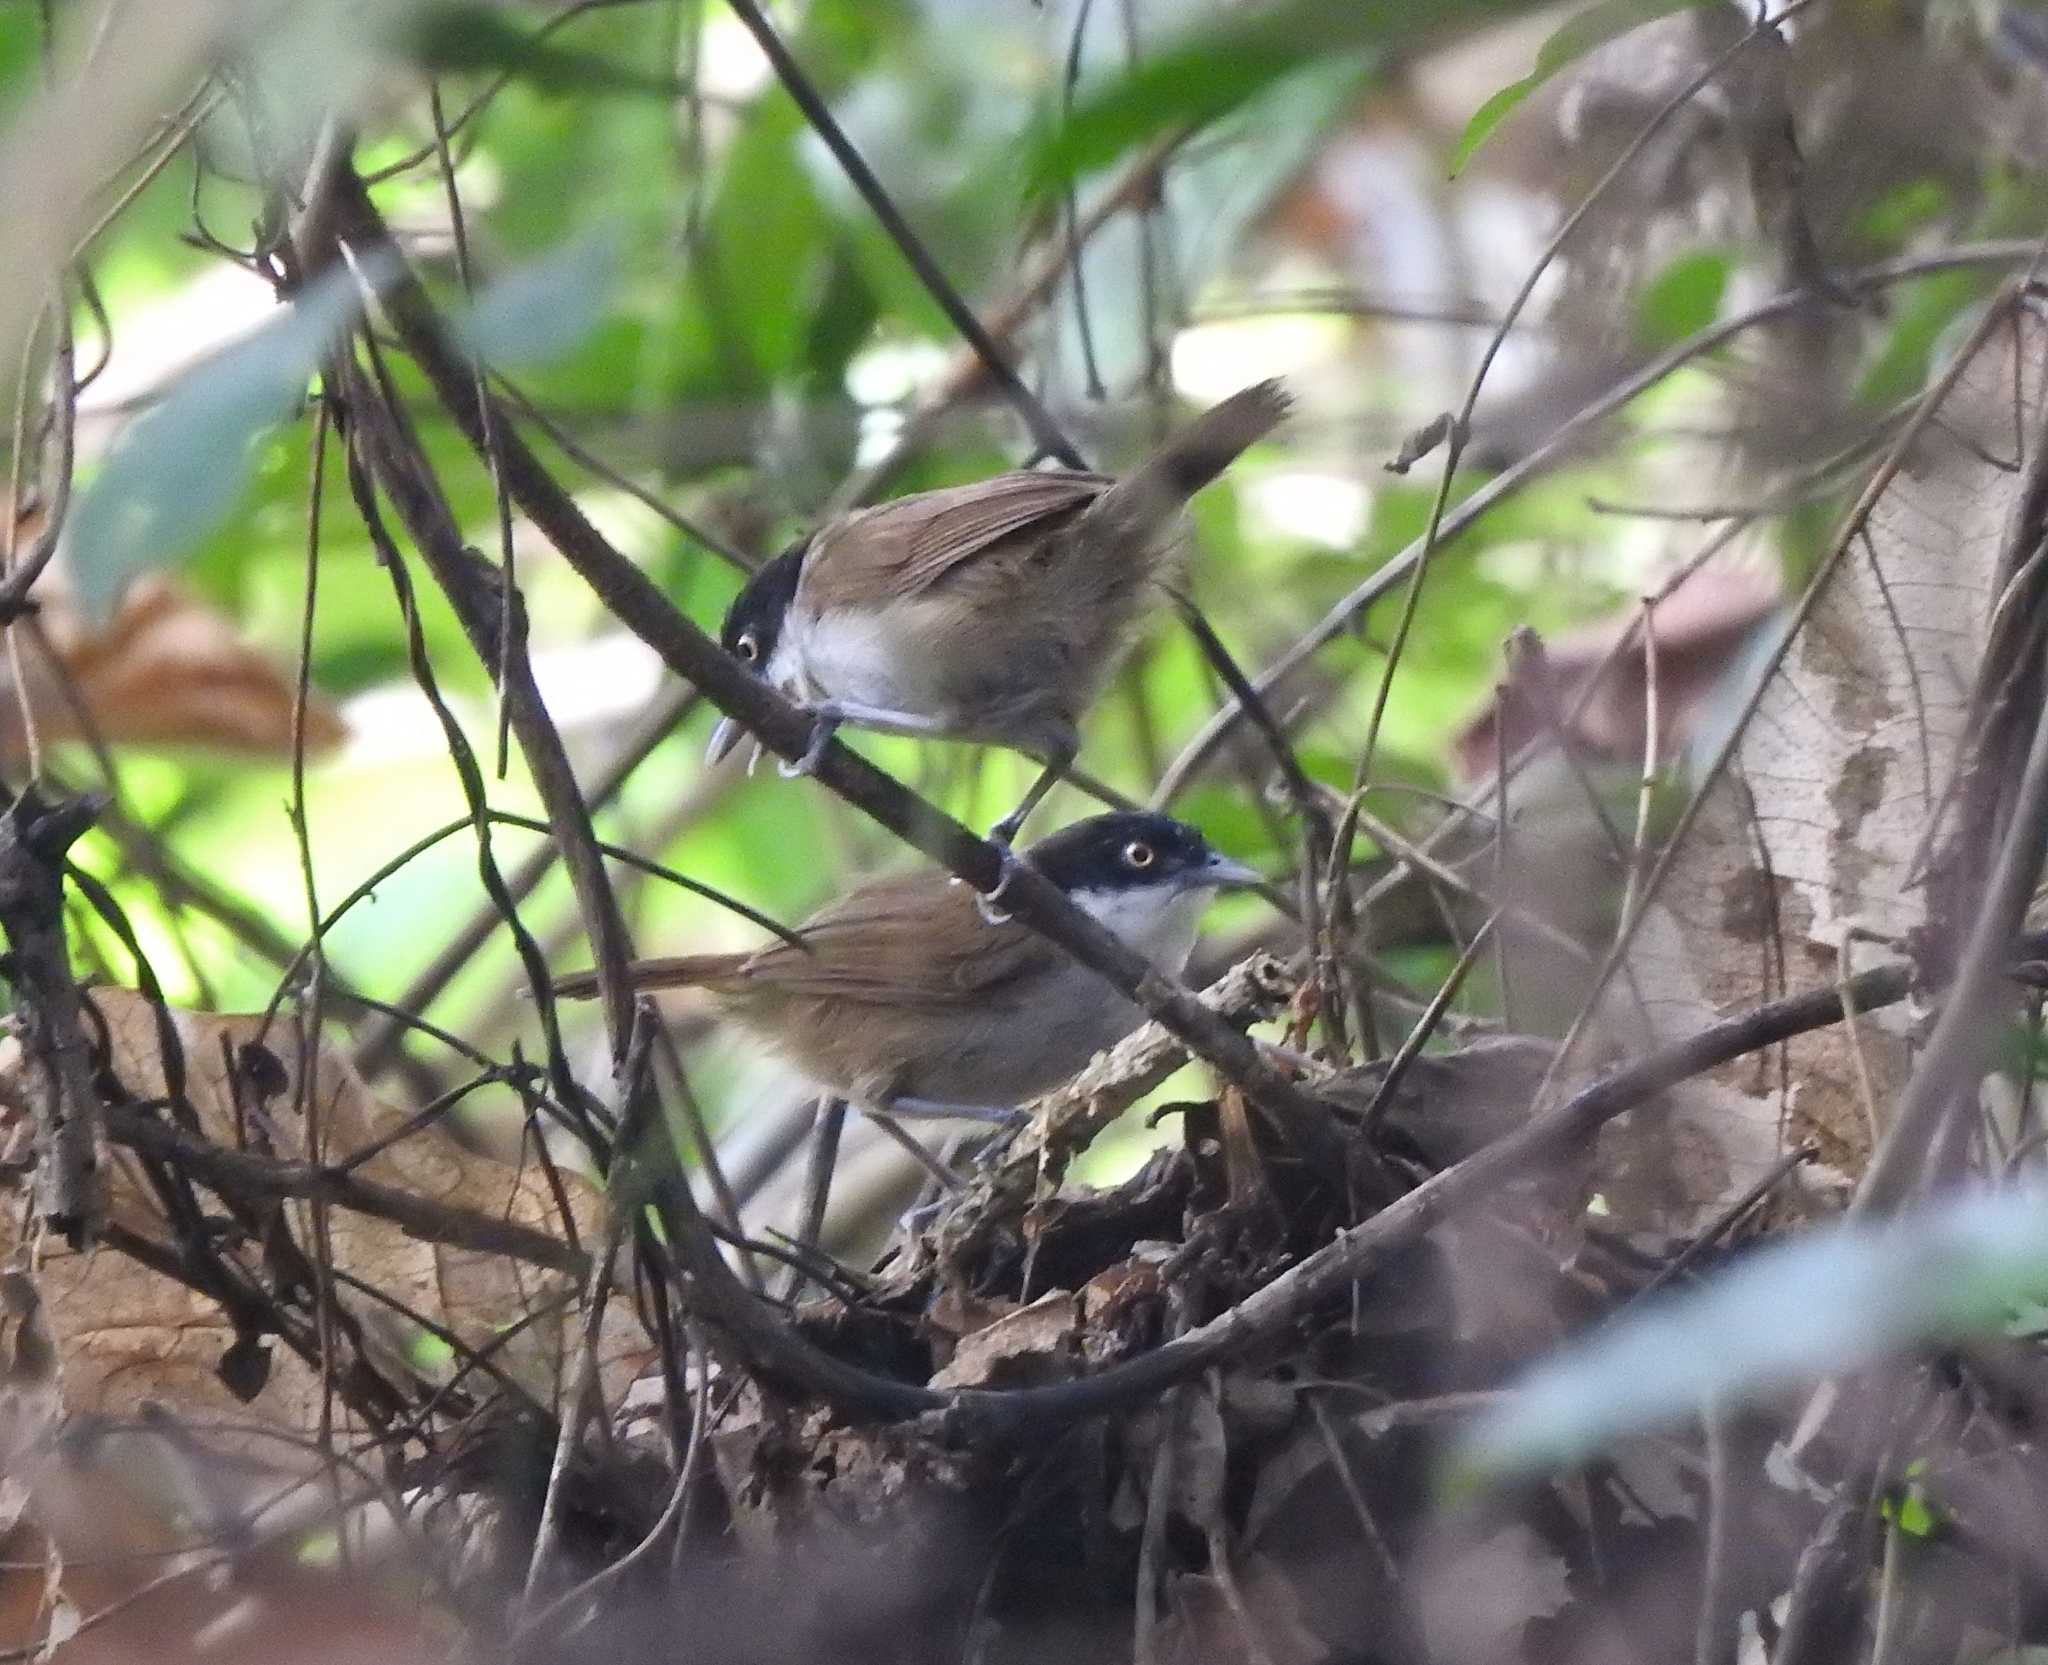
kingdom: Animalia
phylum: Chordata
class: Aves
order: Passeriformes
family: Timaliidae
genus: Rhopocichla
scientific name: Rhopocichla atriceps
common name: Dark-fronted babbler
